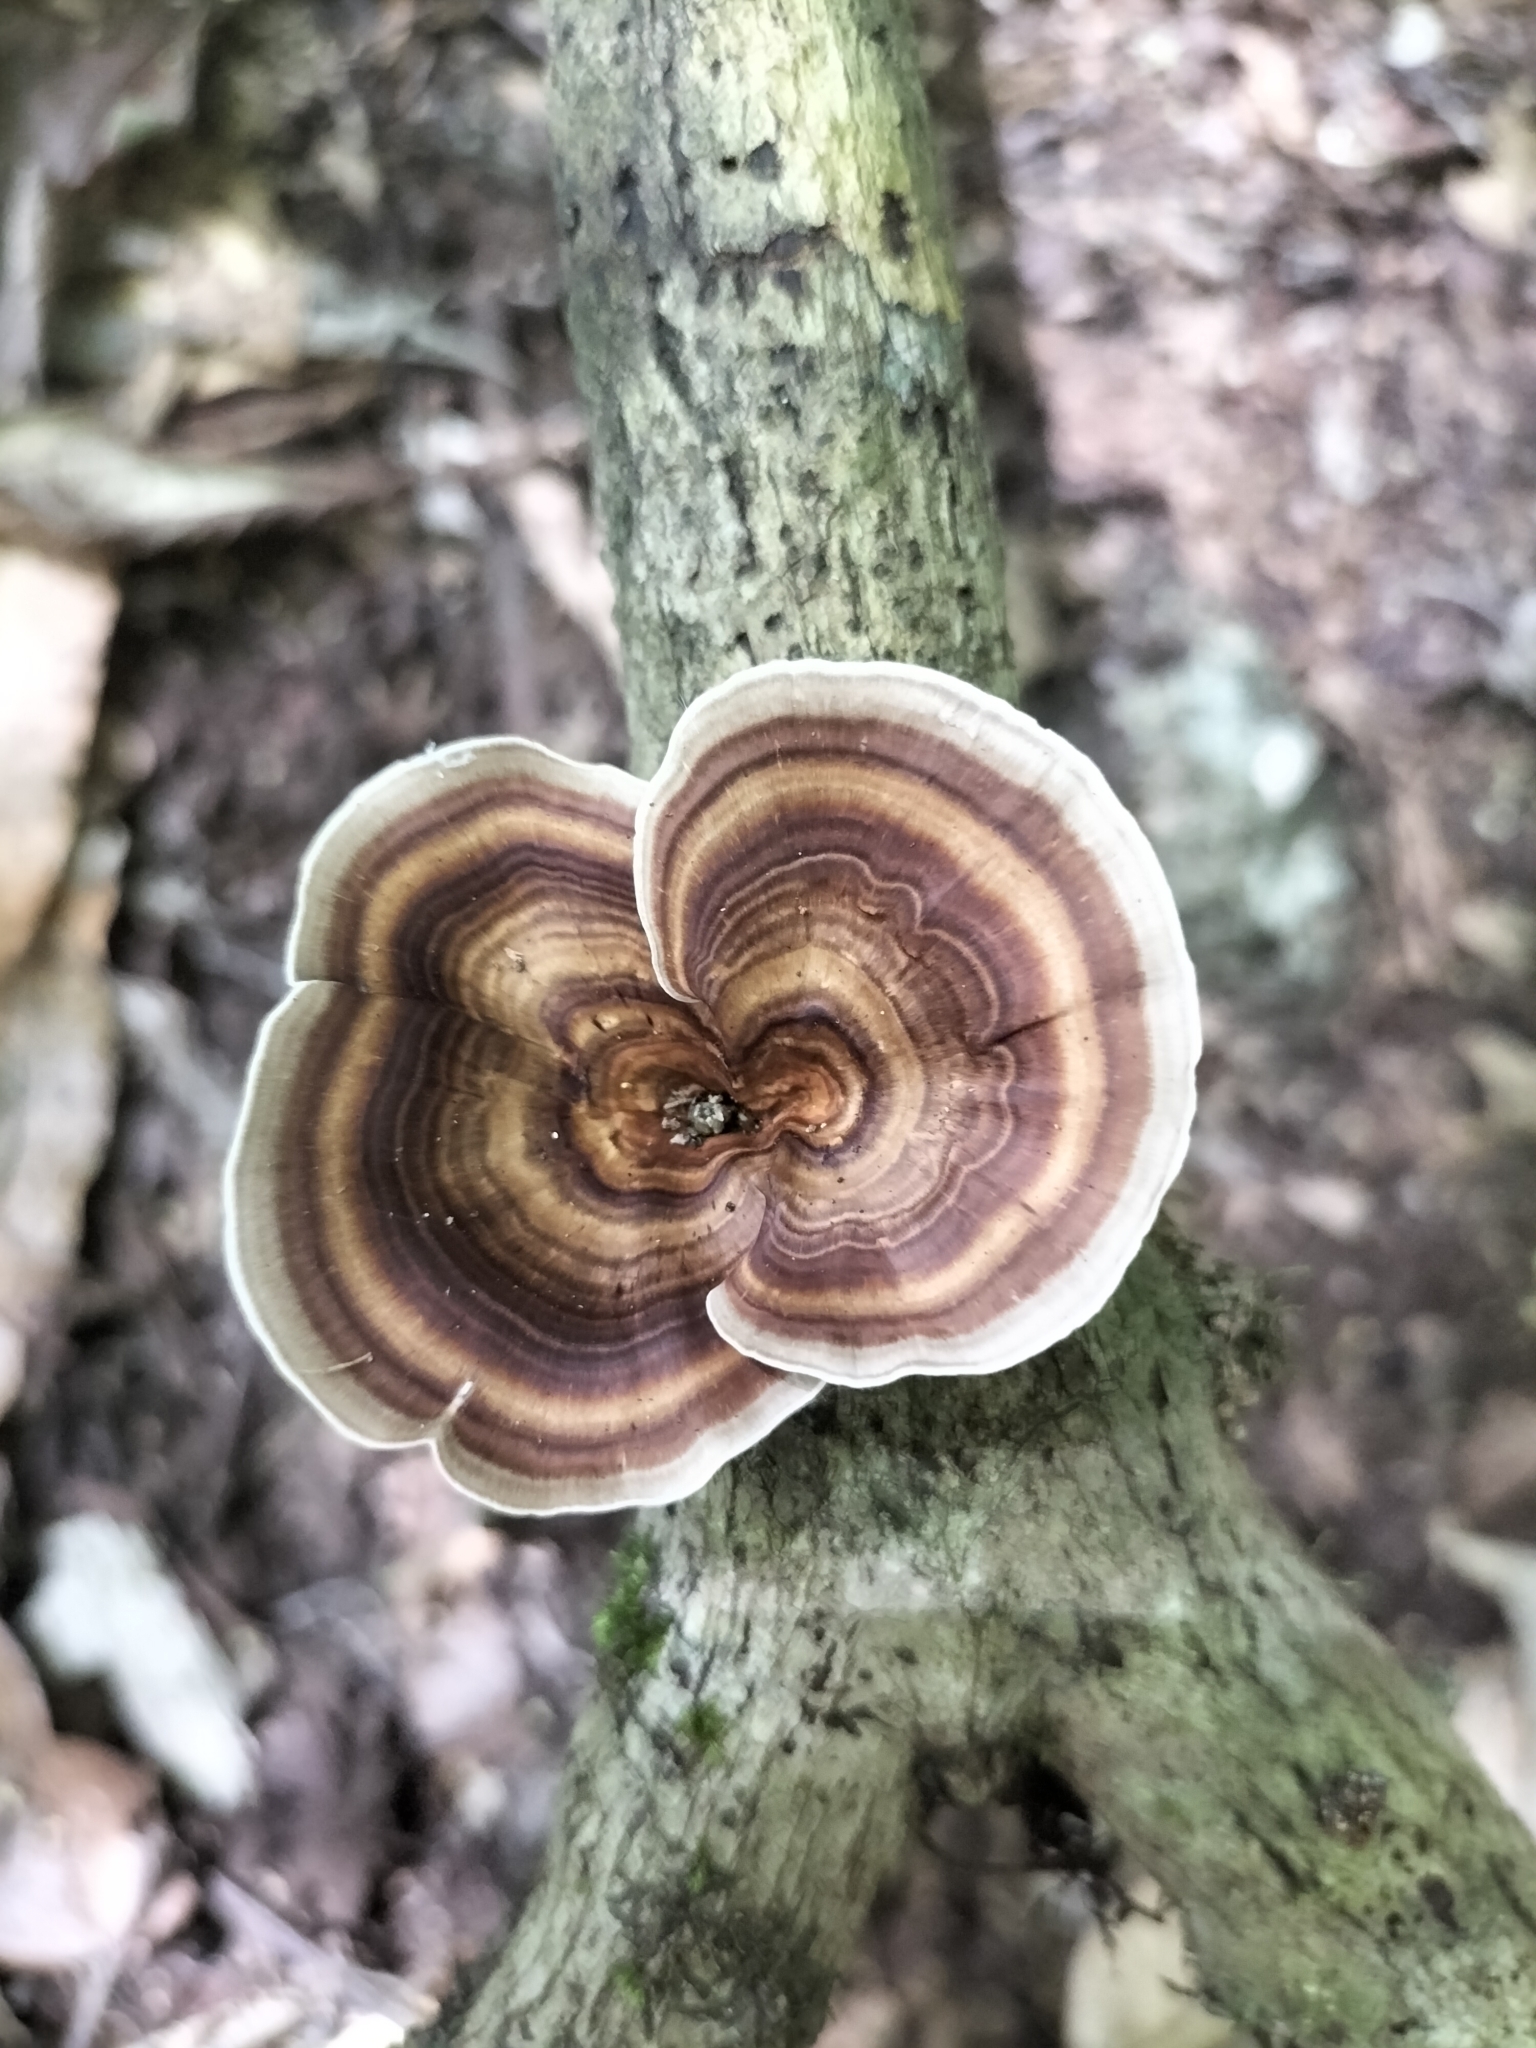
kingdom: Fungi
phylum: Basidiomycota
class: Agaricomycetes
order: Polyporales
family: Polyporaceae
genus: Microporus
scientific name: Microporus xanthopus
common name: Yellow-stemmed micropore
